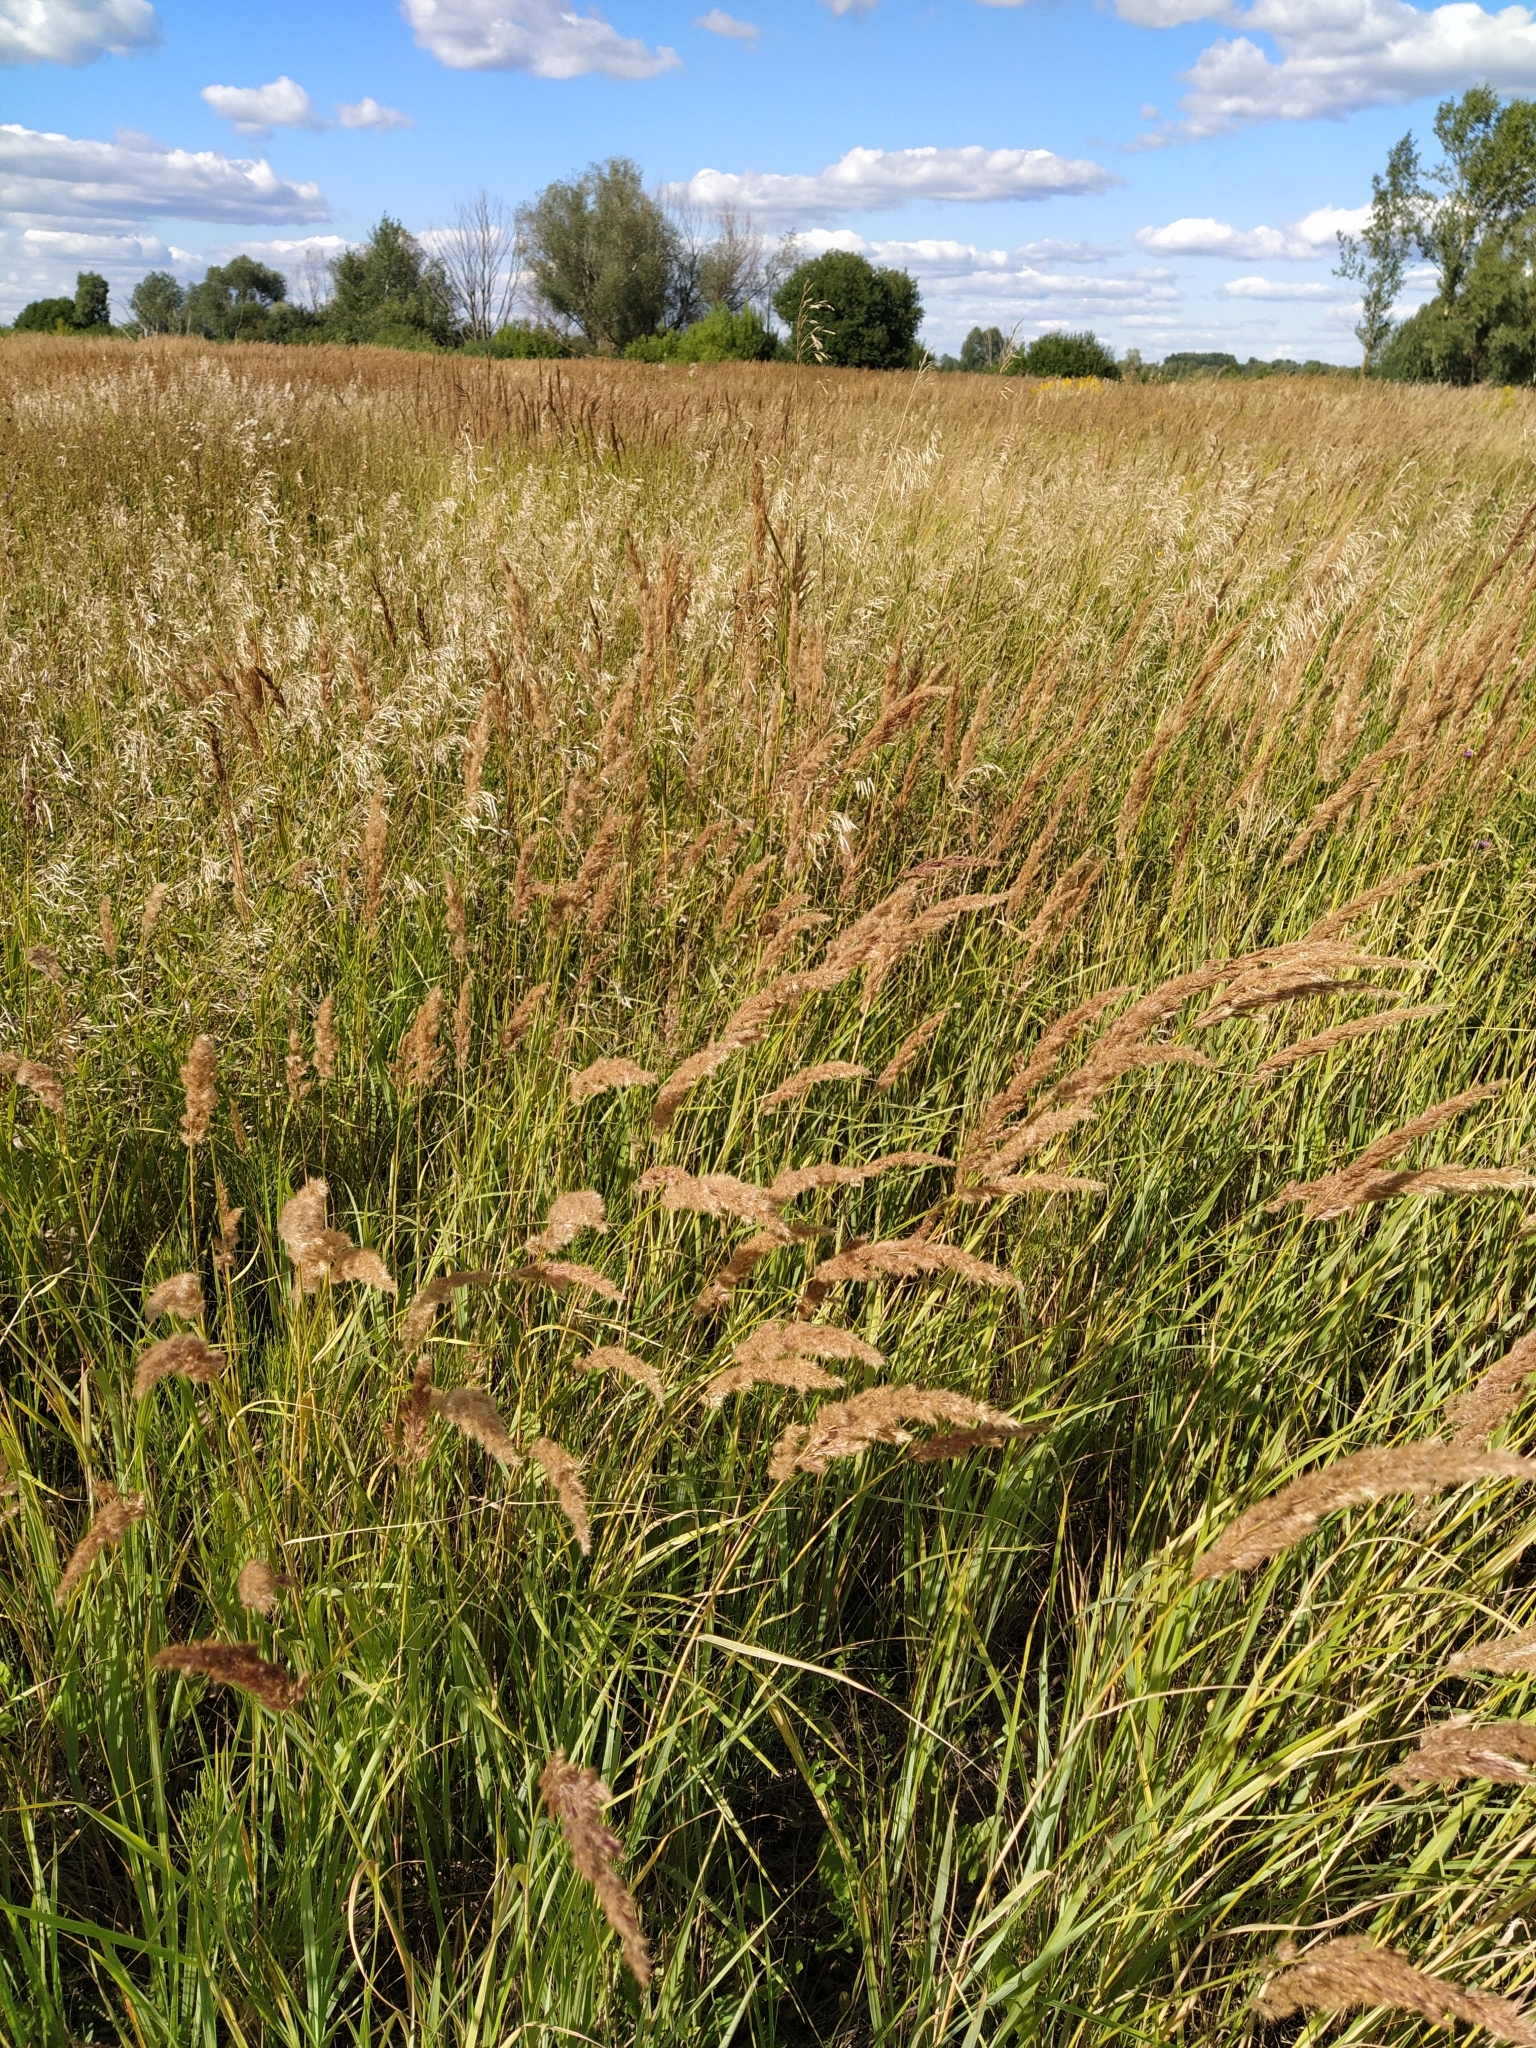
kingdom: Plantae
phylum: Tracheophyta
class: Liliopsida
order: Poales
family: Poaceae
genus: Calamagrostis
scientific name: Calamagrostis epigejos
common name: Wood small-reed
